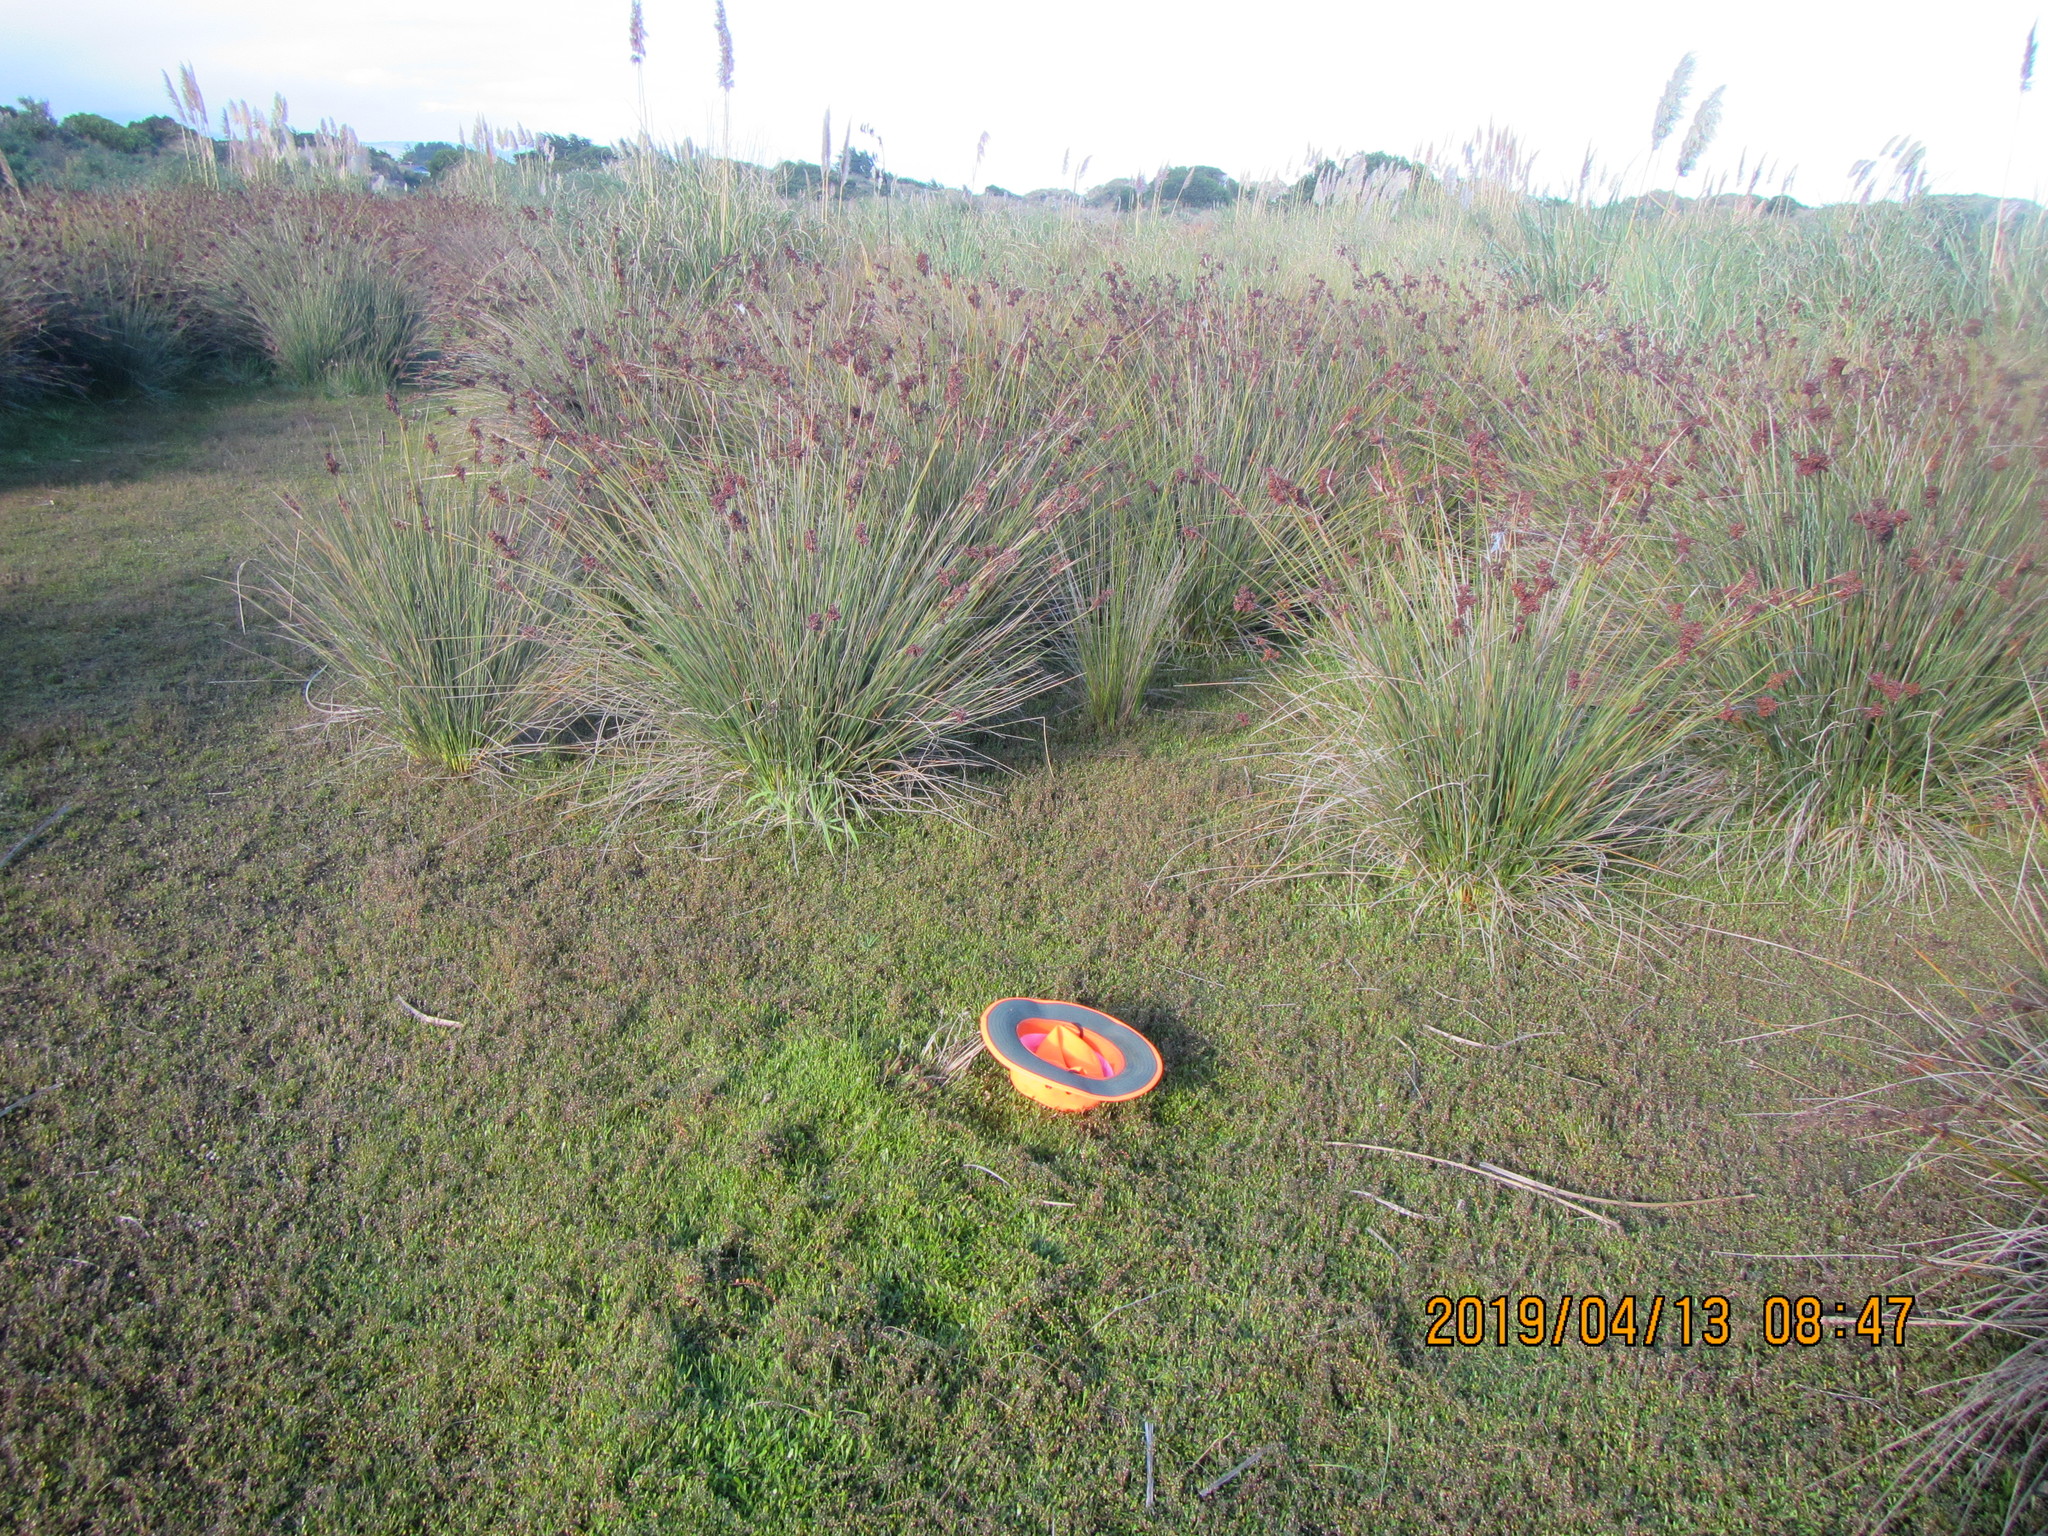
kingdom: Plantae
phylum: Tracheophyta
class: Magnoliopsida
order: Asterales
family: Goodeniaceae
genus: Goodenia
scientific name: Goodenia radicans
